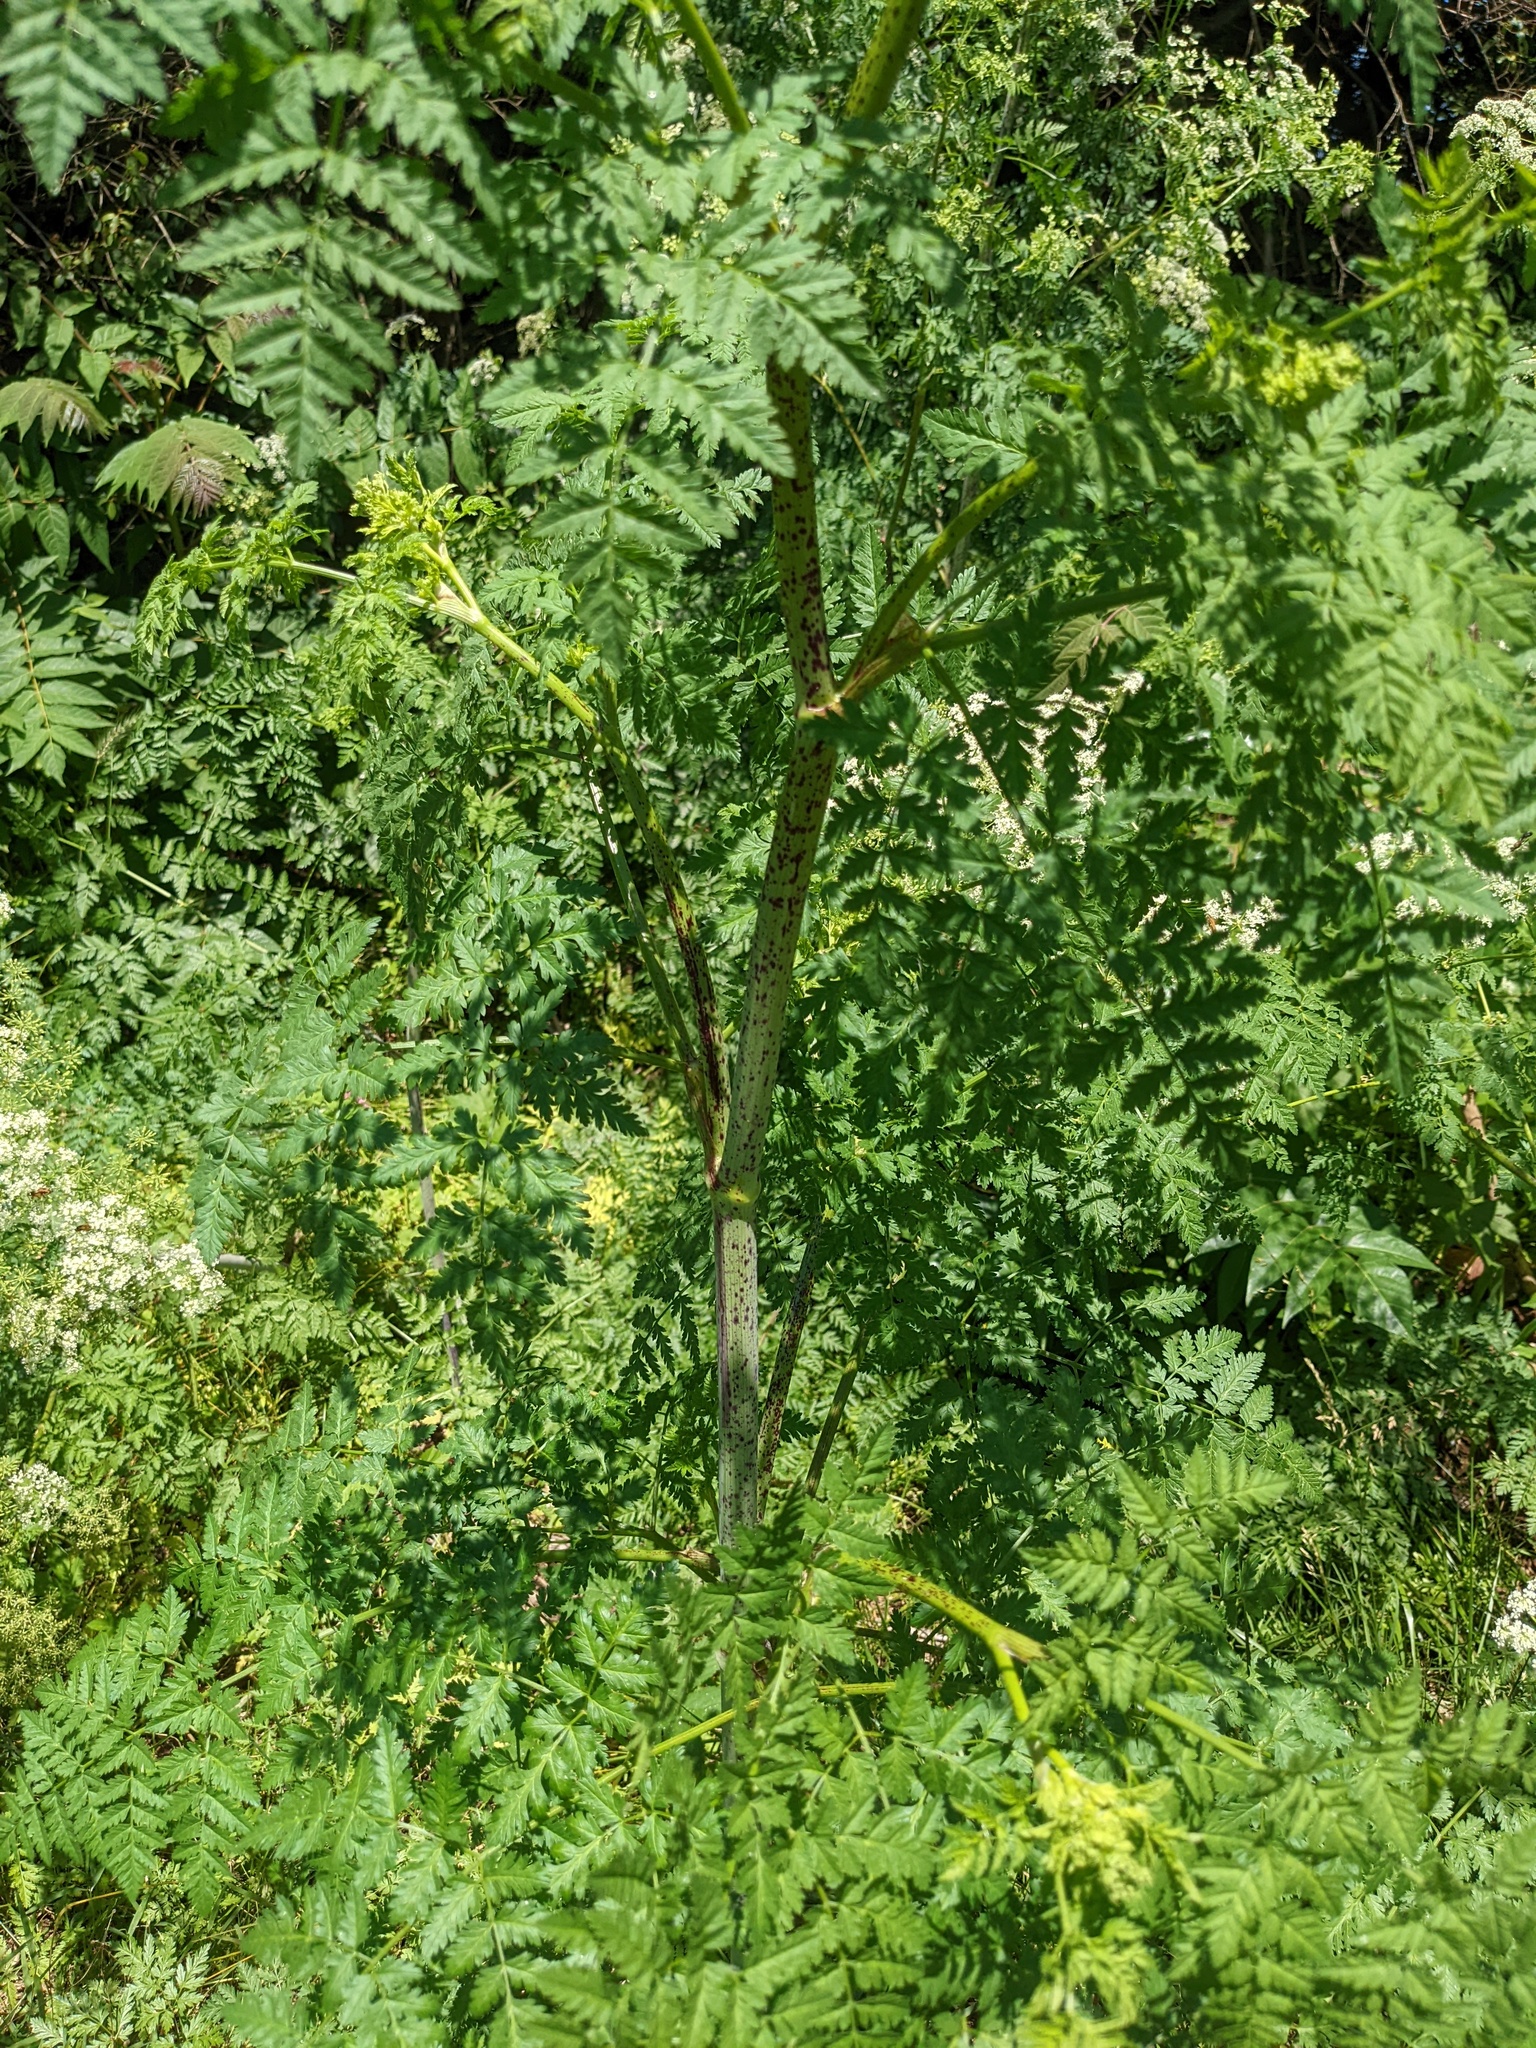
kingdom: Plantae
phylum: Tracheophyta
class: Magnoliopsida
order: Apiales
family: Apiaceae
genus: Conium
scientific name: Conium maculatum
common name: Hemlock
